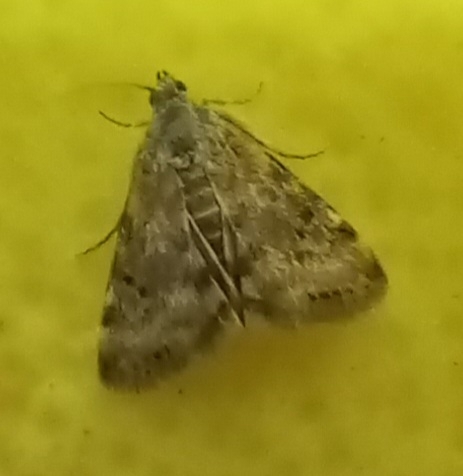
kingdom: Animalia
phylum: Arthropoda
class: Insecta
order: Lepidoptera
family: Crambidae
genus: Noctuelia
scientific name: Noctuelia Aporodes floralis
